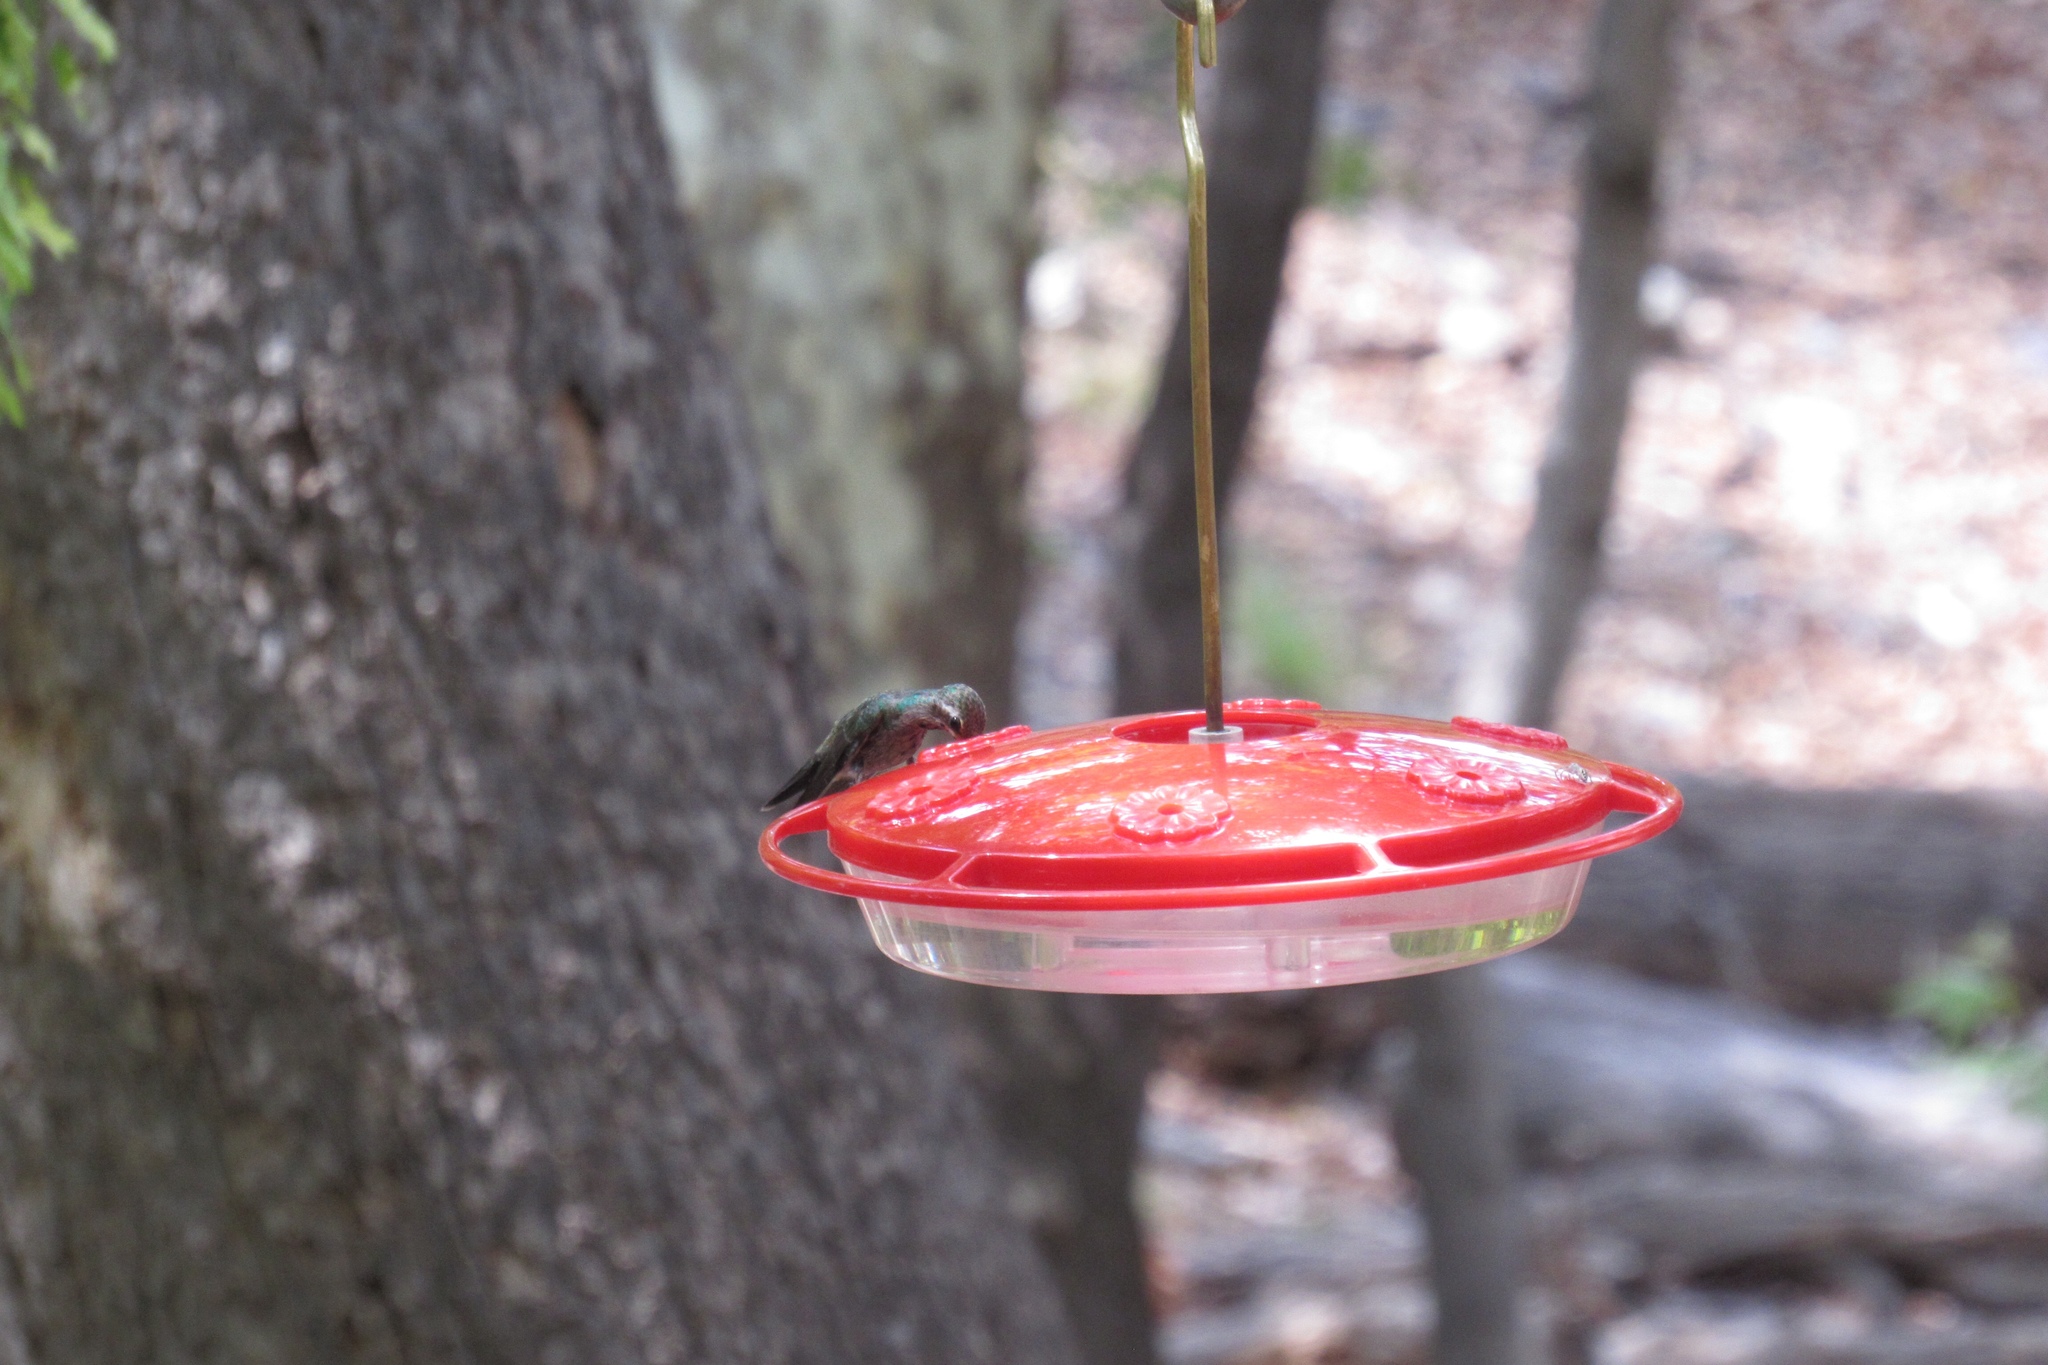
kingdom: Animalia
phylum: Chordata
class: Aves
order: Apodiformes
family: Trochilidae
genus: Cynanthus
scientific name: Cynanthus latirostris
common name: Broad-billed hummingbird
